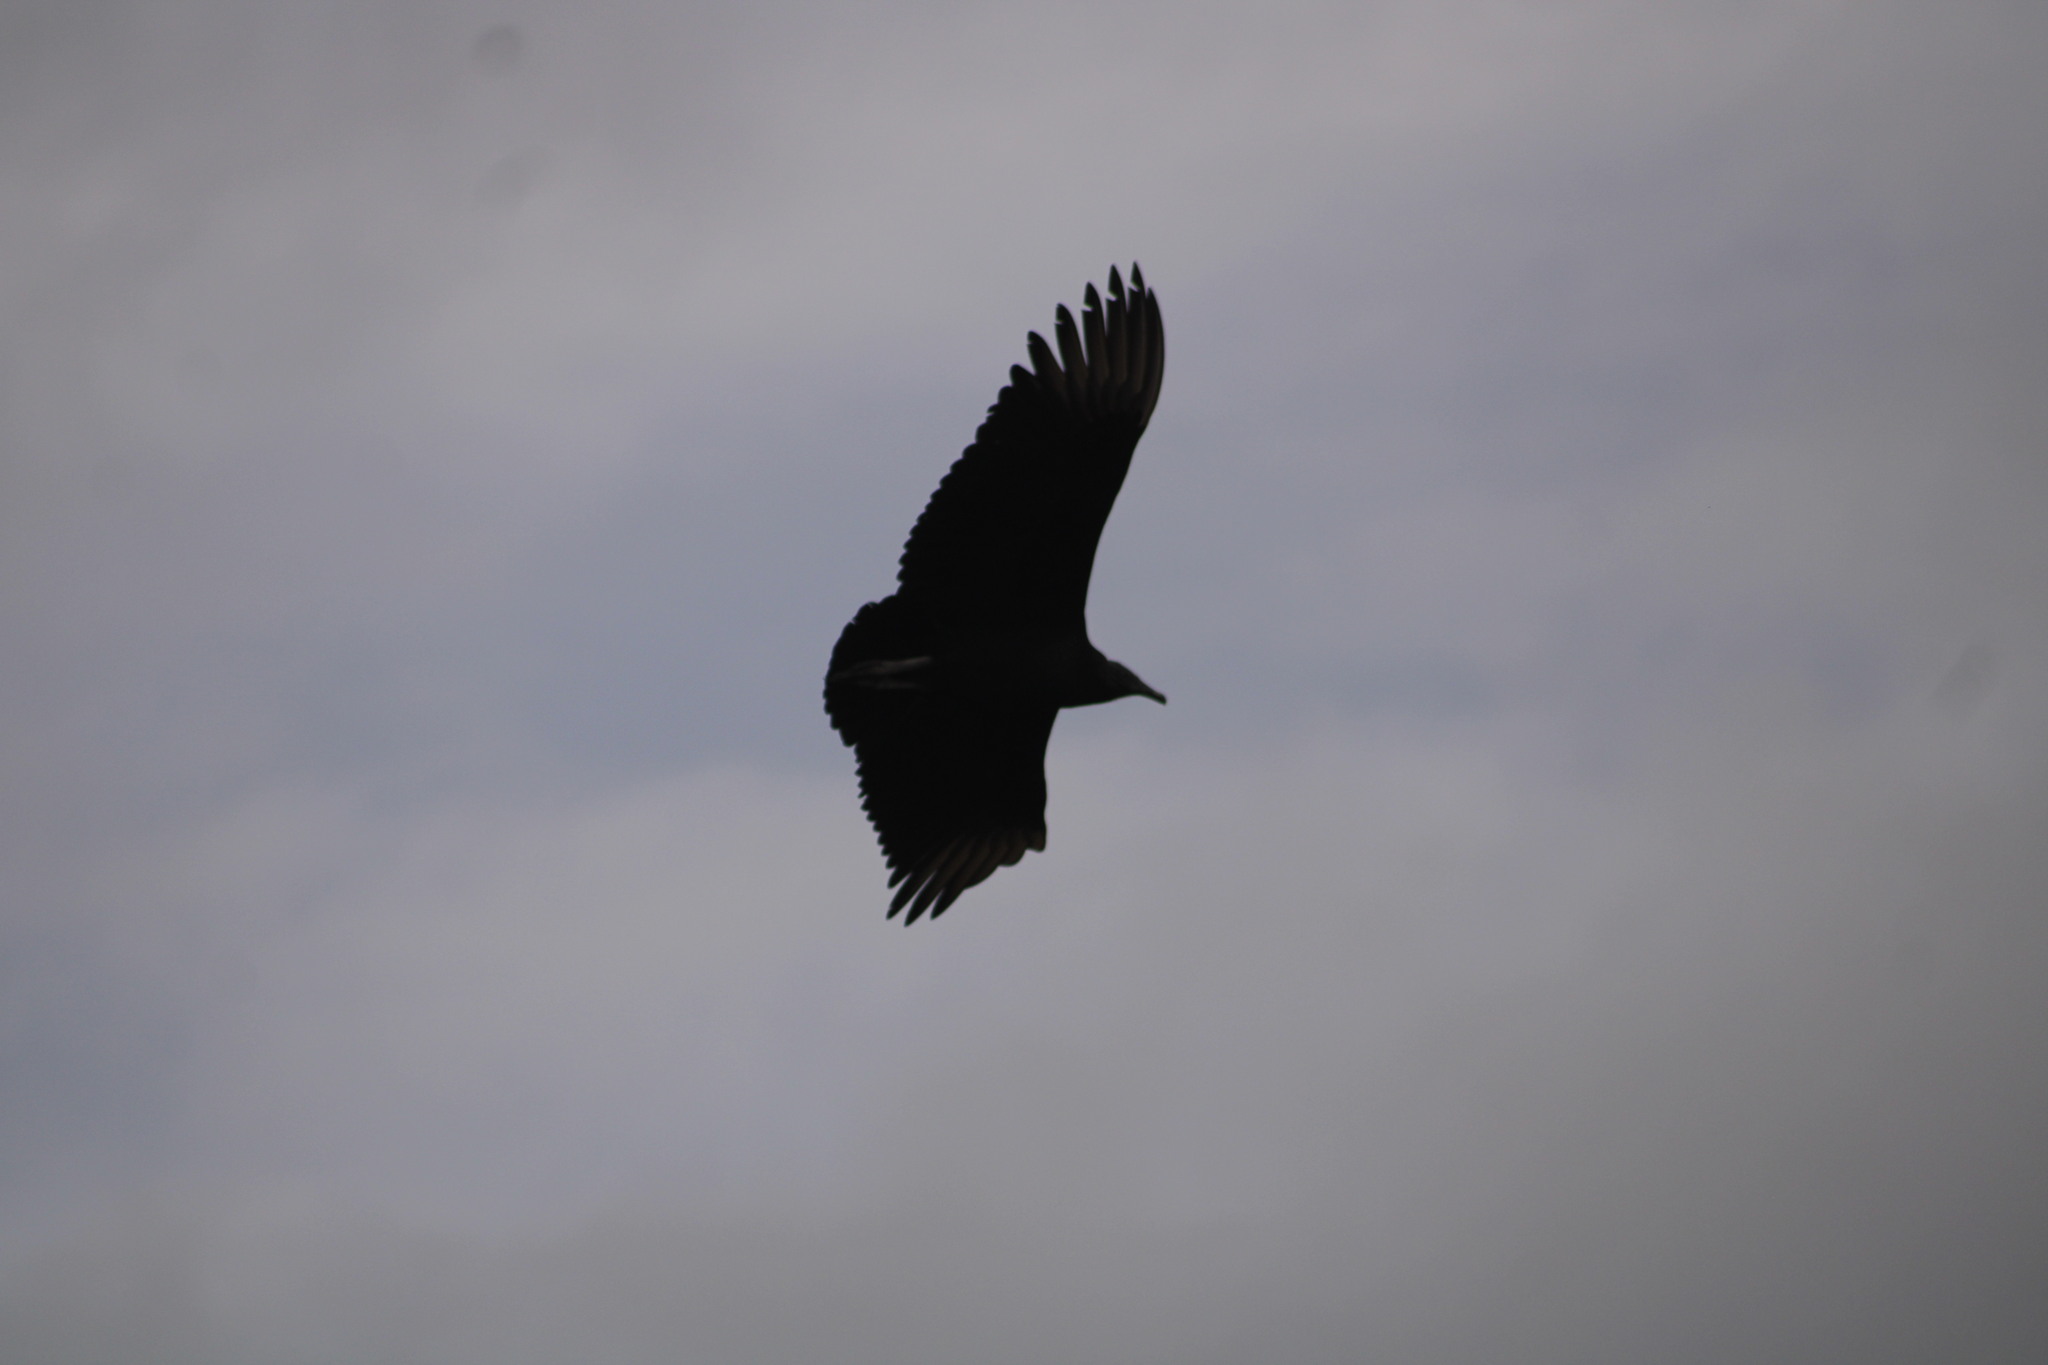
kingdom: Animalia
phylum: Chordata
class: Aves
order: Accipitriformes
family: Cathartidae
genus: Coragyps
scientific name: Coragyps atratus
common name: Black vulture
